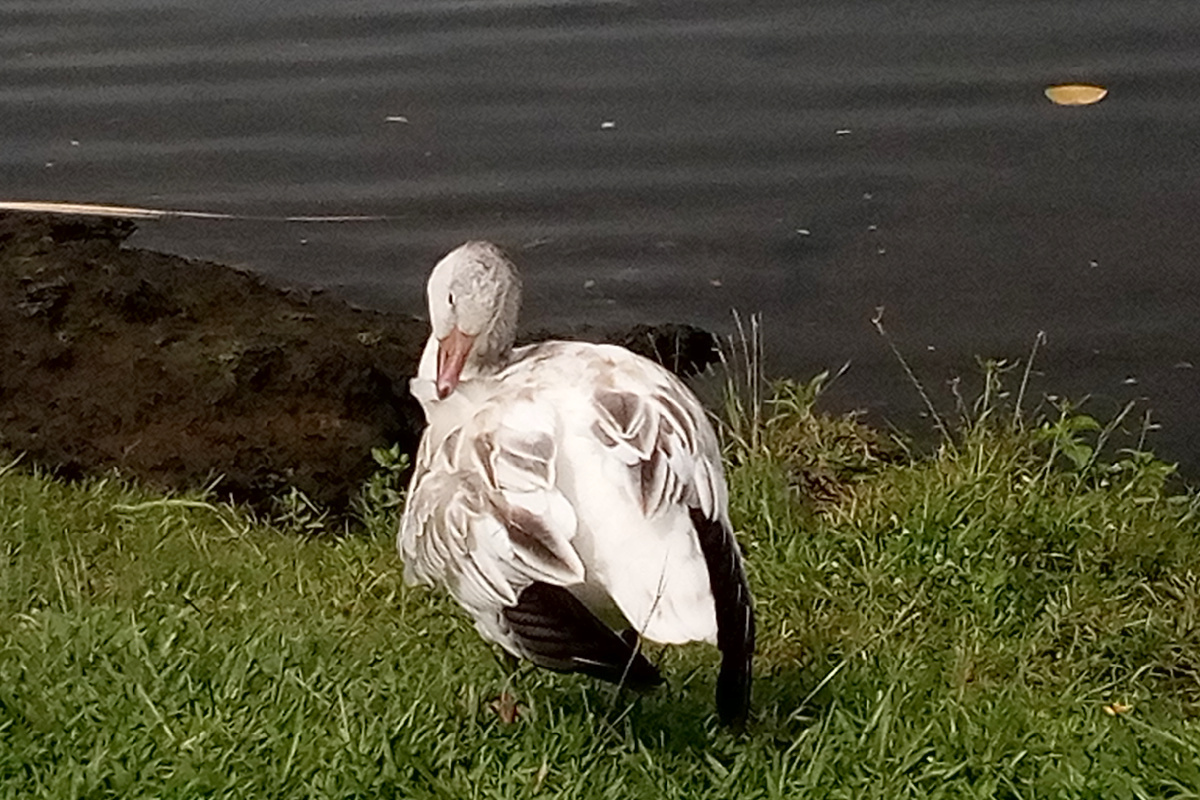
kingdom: Animalia
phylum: Chordata
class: Aves
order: Anseriformes
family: Anatidae
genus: Anser
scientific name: Anser caerulescens
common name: Snow goose
